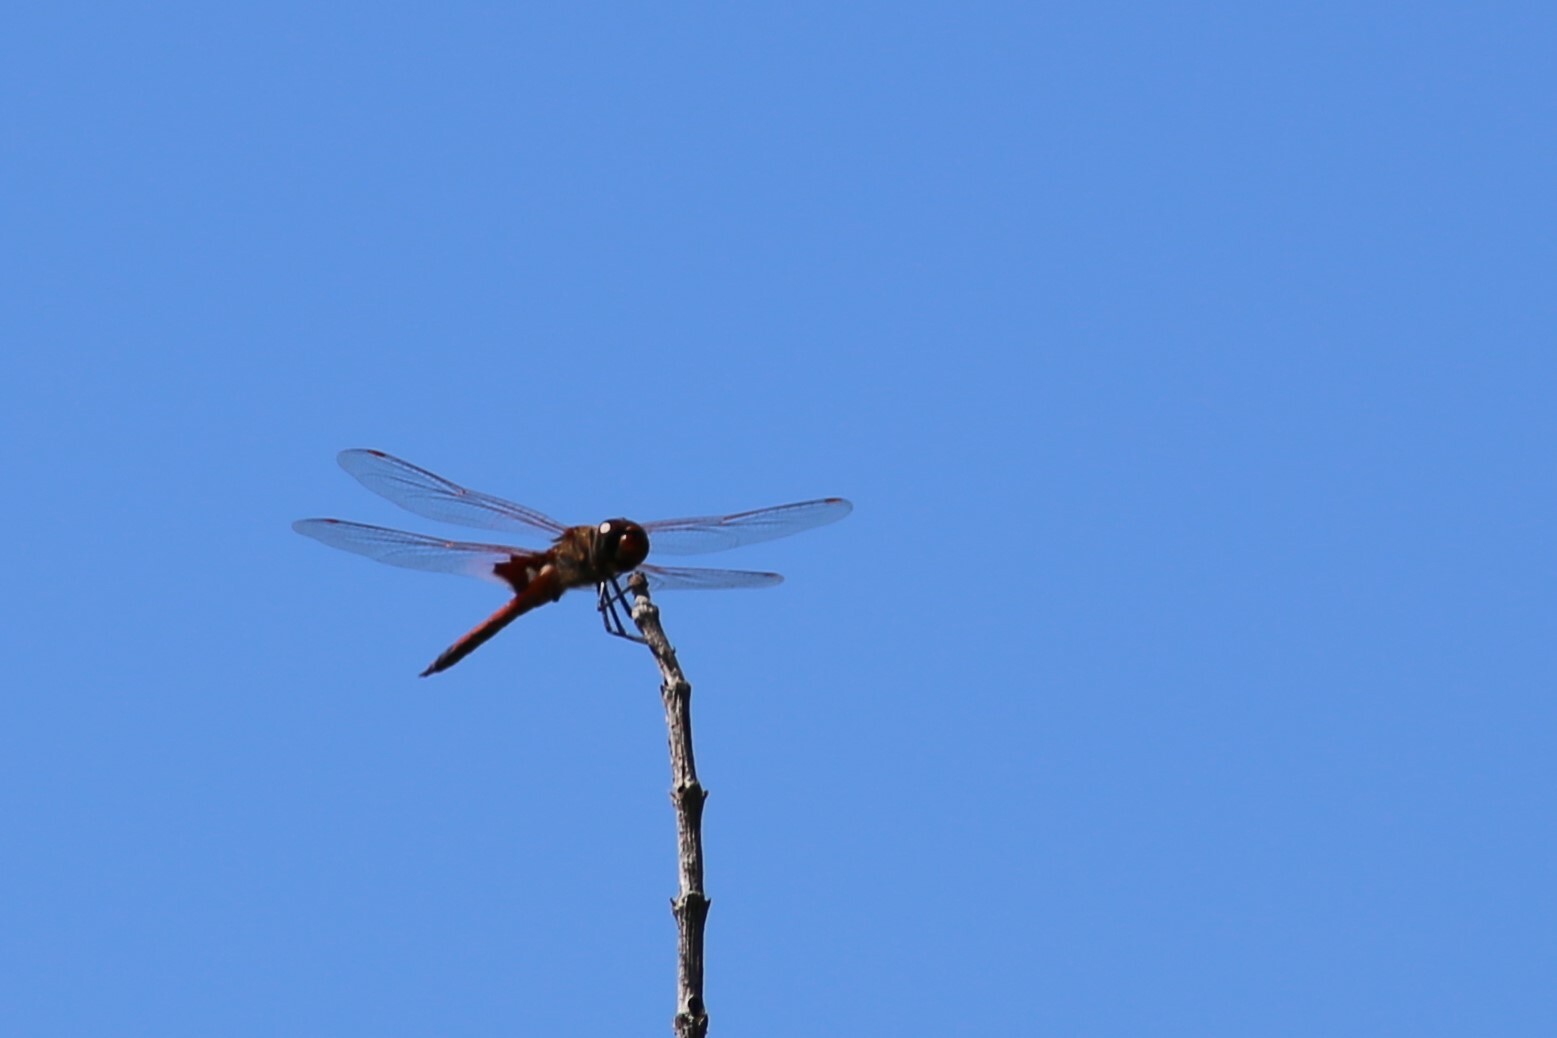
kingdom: Animalia
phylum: Arthropoda
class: Insecta
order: Odonata
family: Libellulidae
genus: Tramea
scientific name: Tramea loewii
